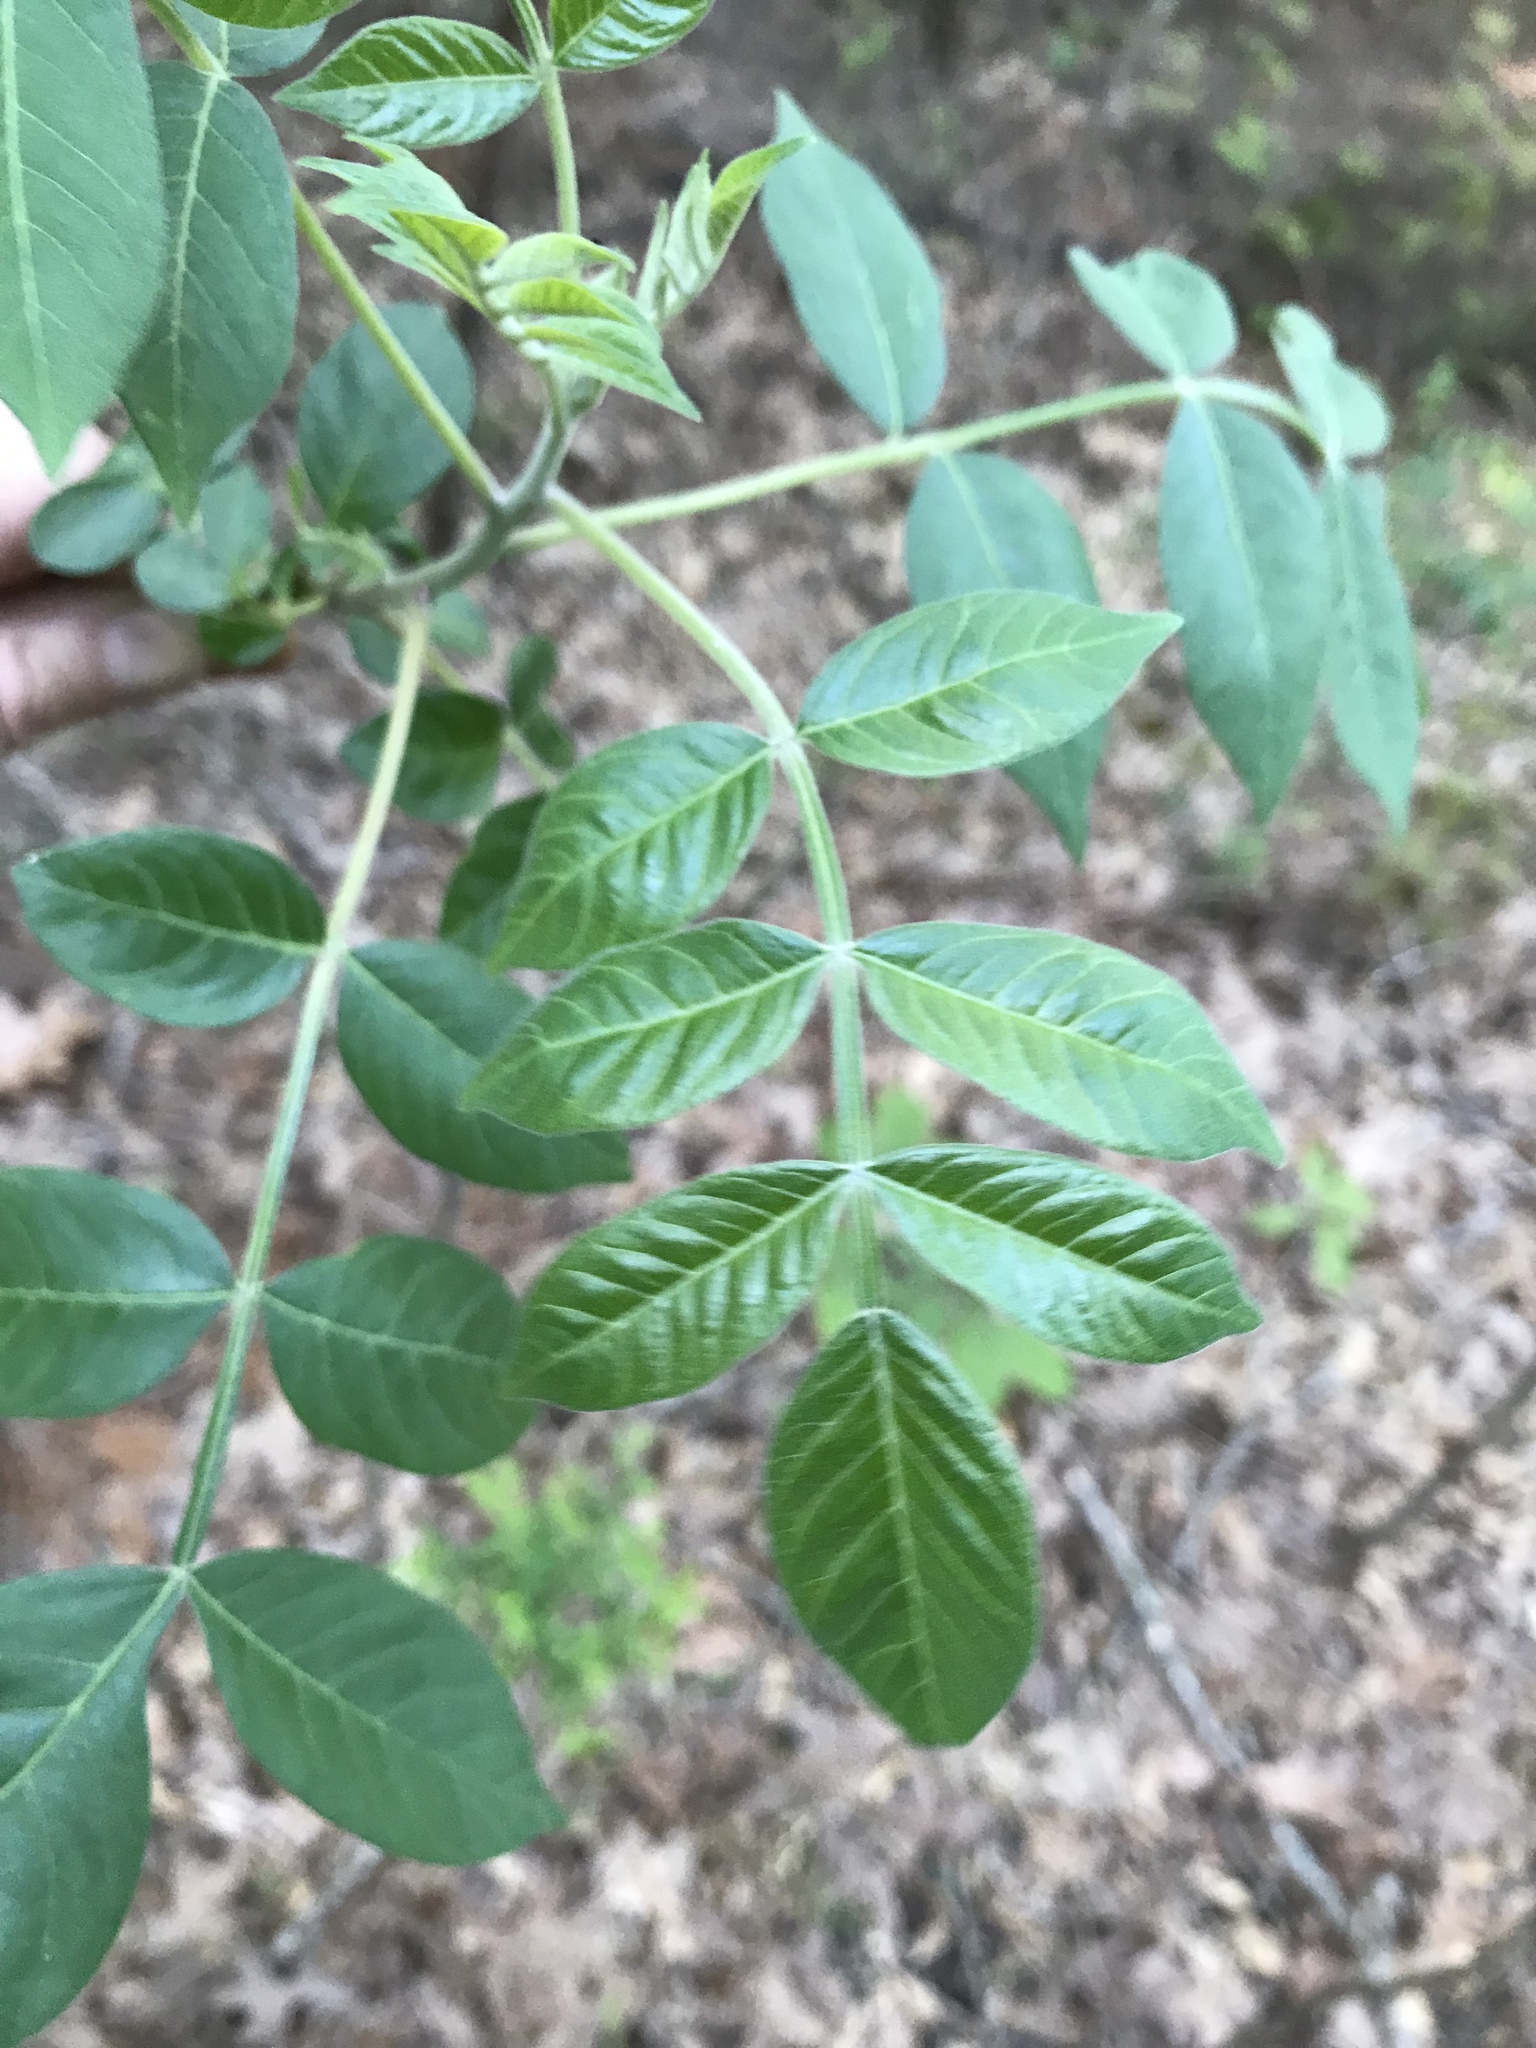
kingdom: Plantae
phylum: Tracheophyta
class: Magnoliopsida
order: Sapindales
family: Anacardiaceae
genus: Rhus
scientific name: Rhus copallina
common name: Shining sumac
